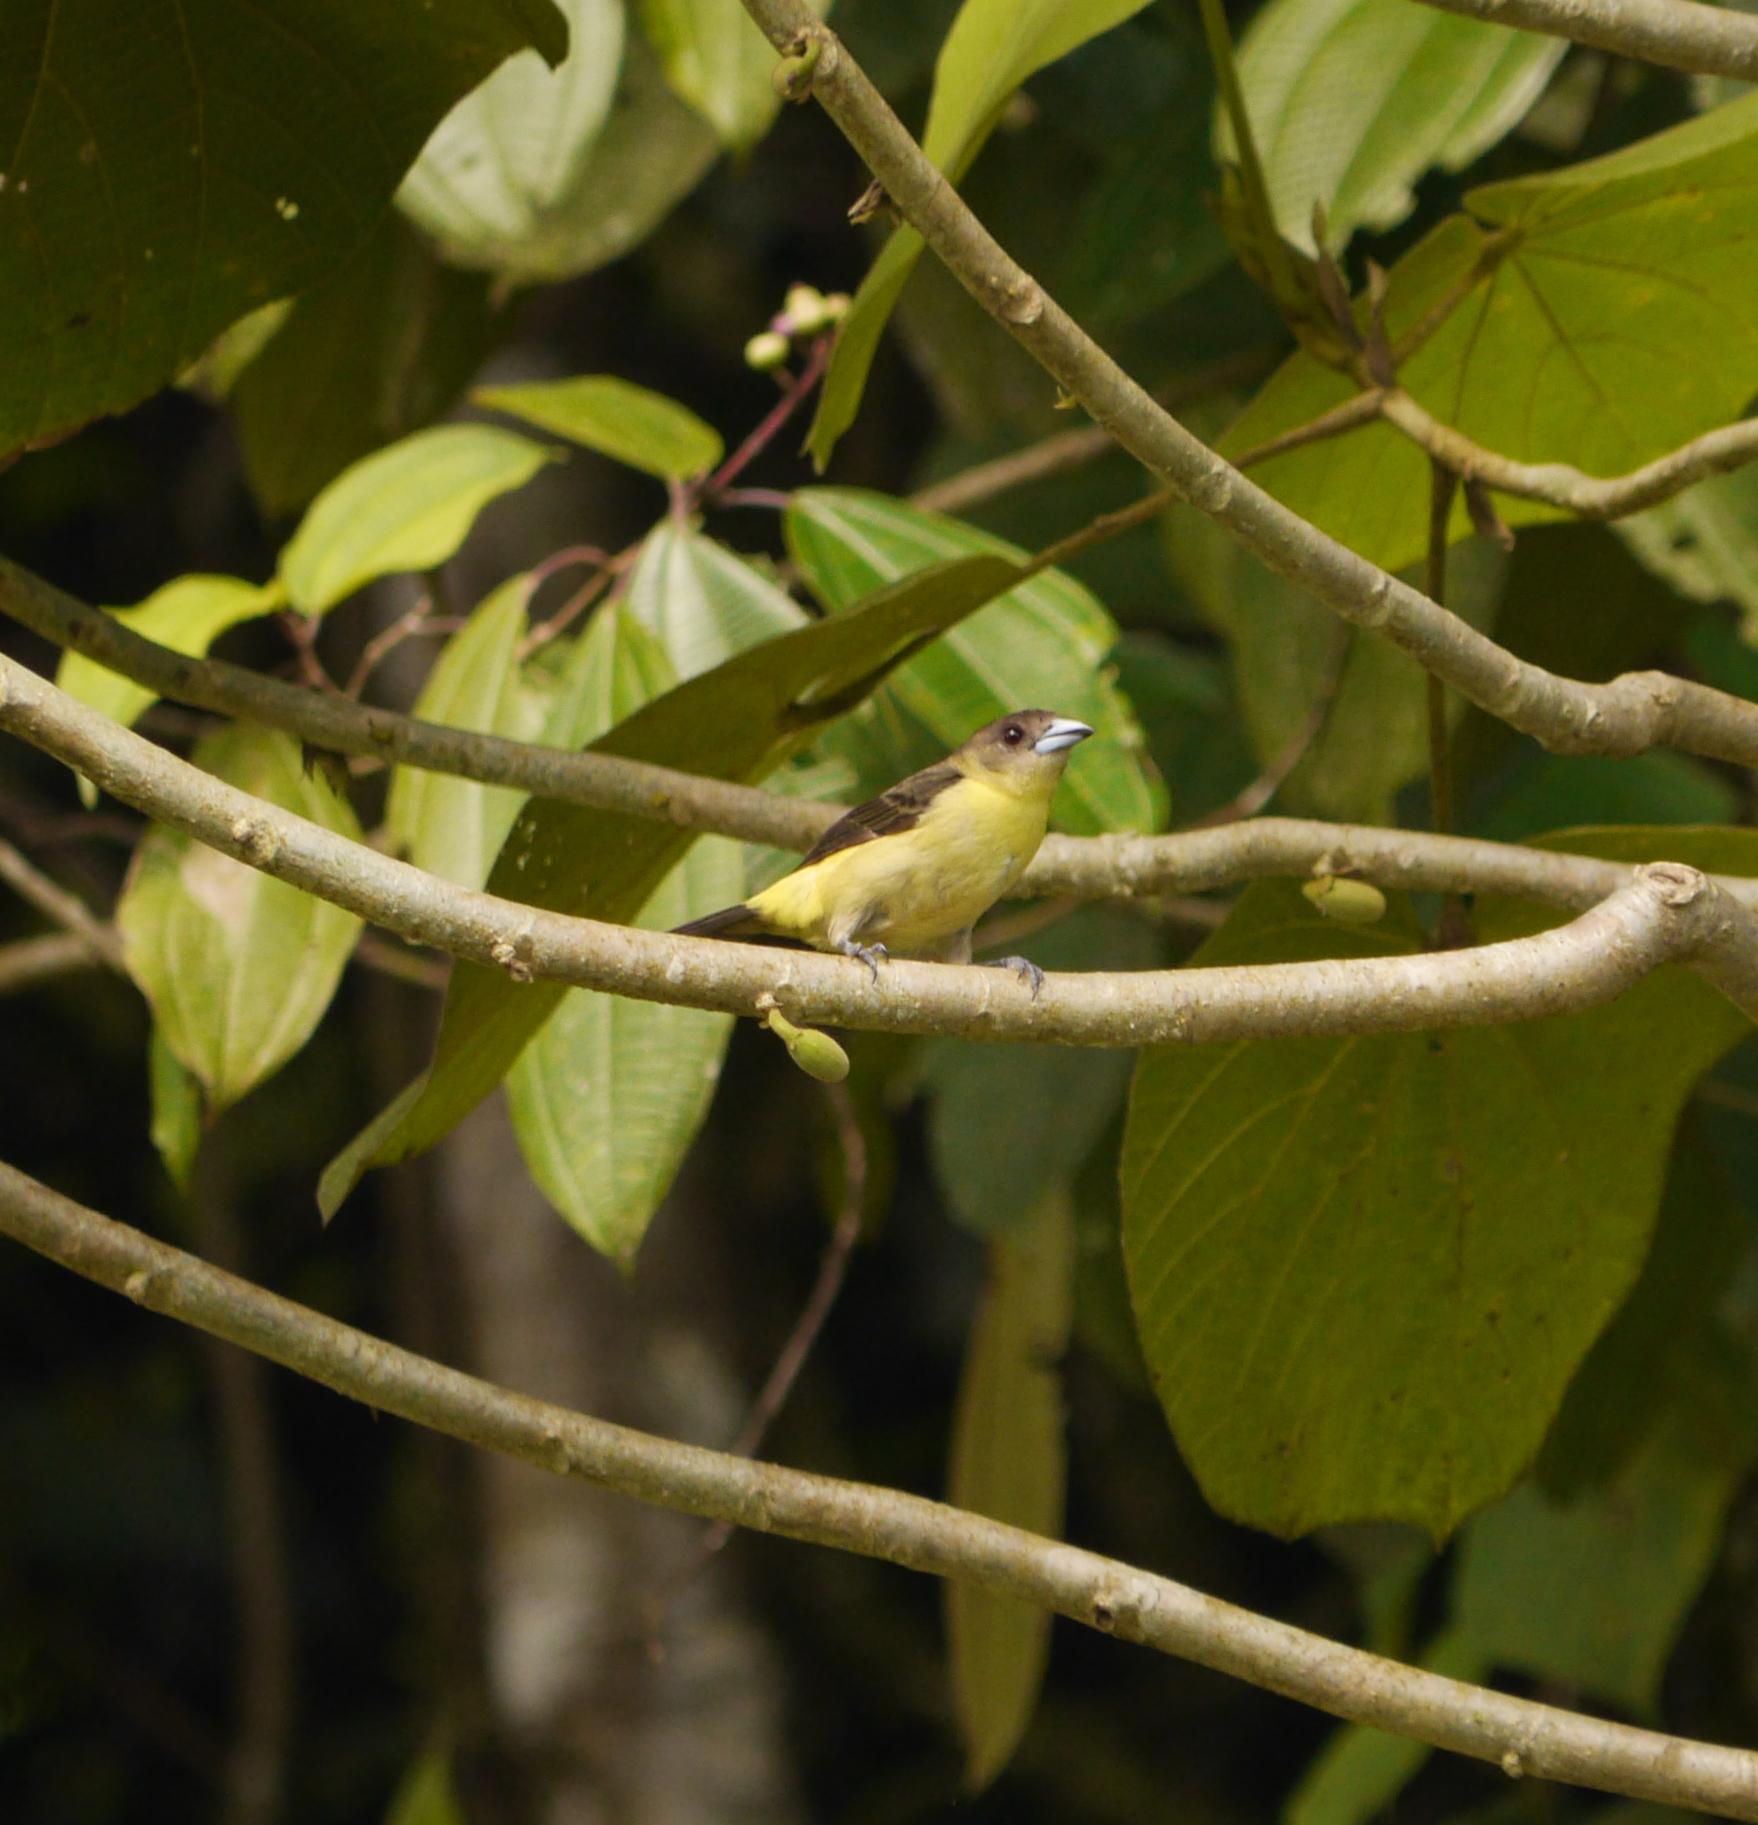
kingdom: Animalia
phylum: Chordata
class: Aves
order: Passeriformes
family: Thraupidae
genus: Ramphocelus
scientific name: Ramphocelus flammigerus
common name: Flame-rumped tanager
